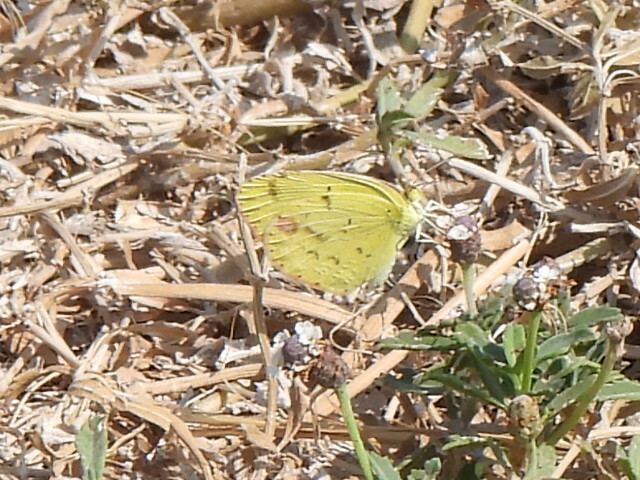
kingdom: Animalia
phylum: Arthropoda
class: Insecta
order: Lepidoptera
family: Pieridae
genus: Pyrisitia
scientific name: Pyrisitia lisa
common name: Little yellow
